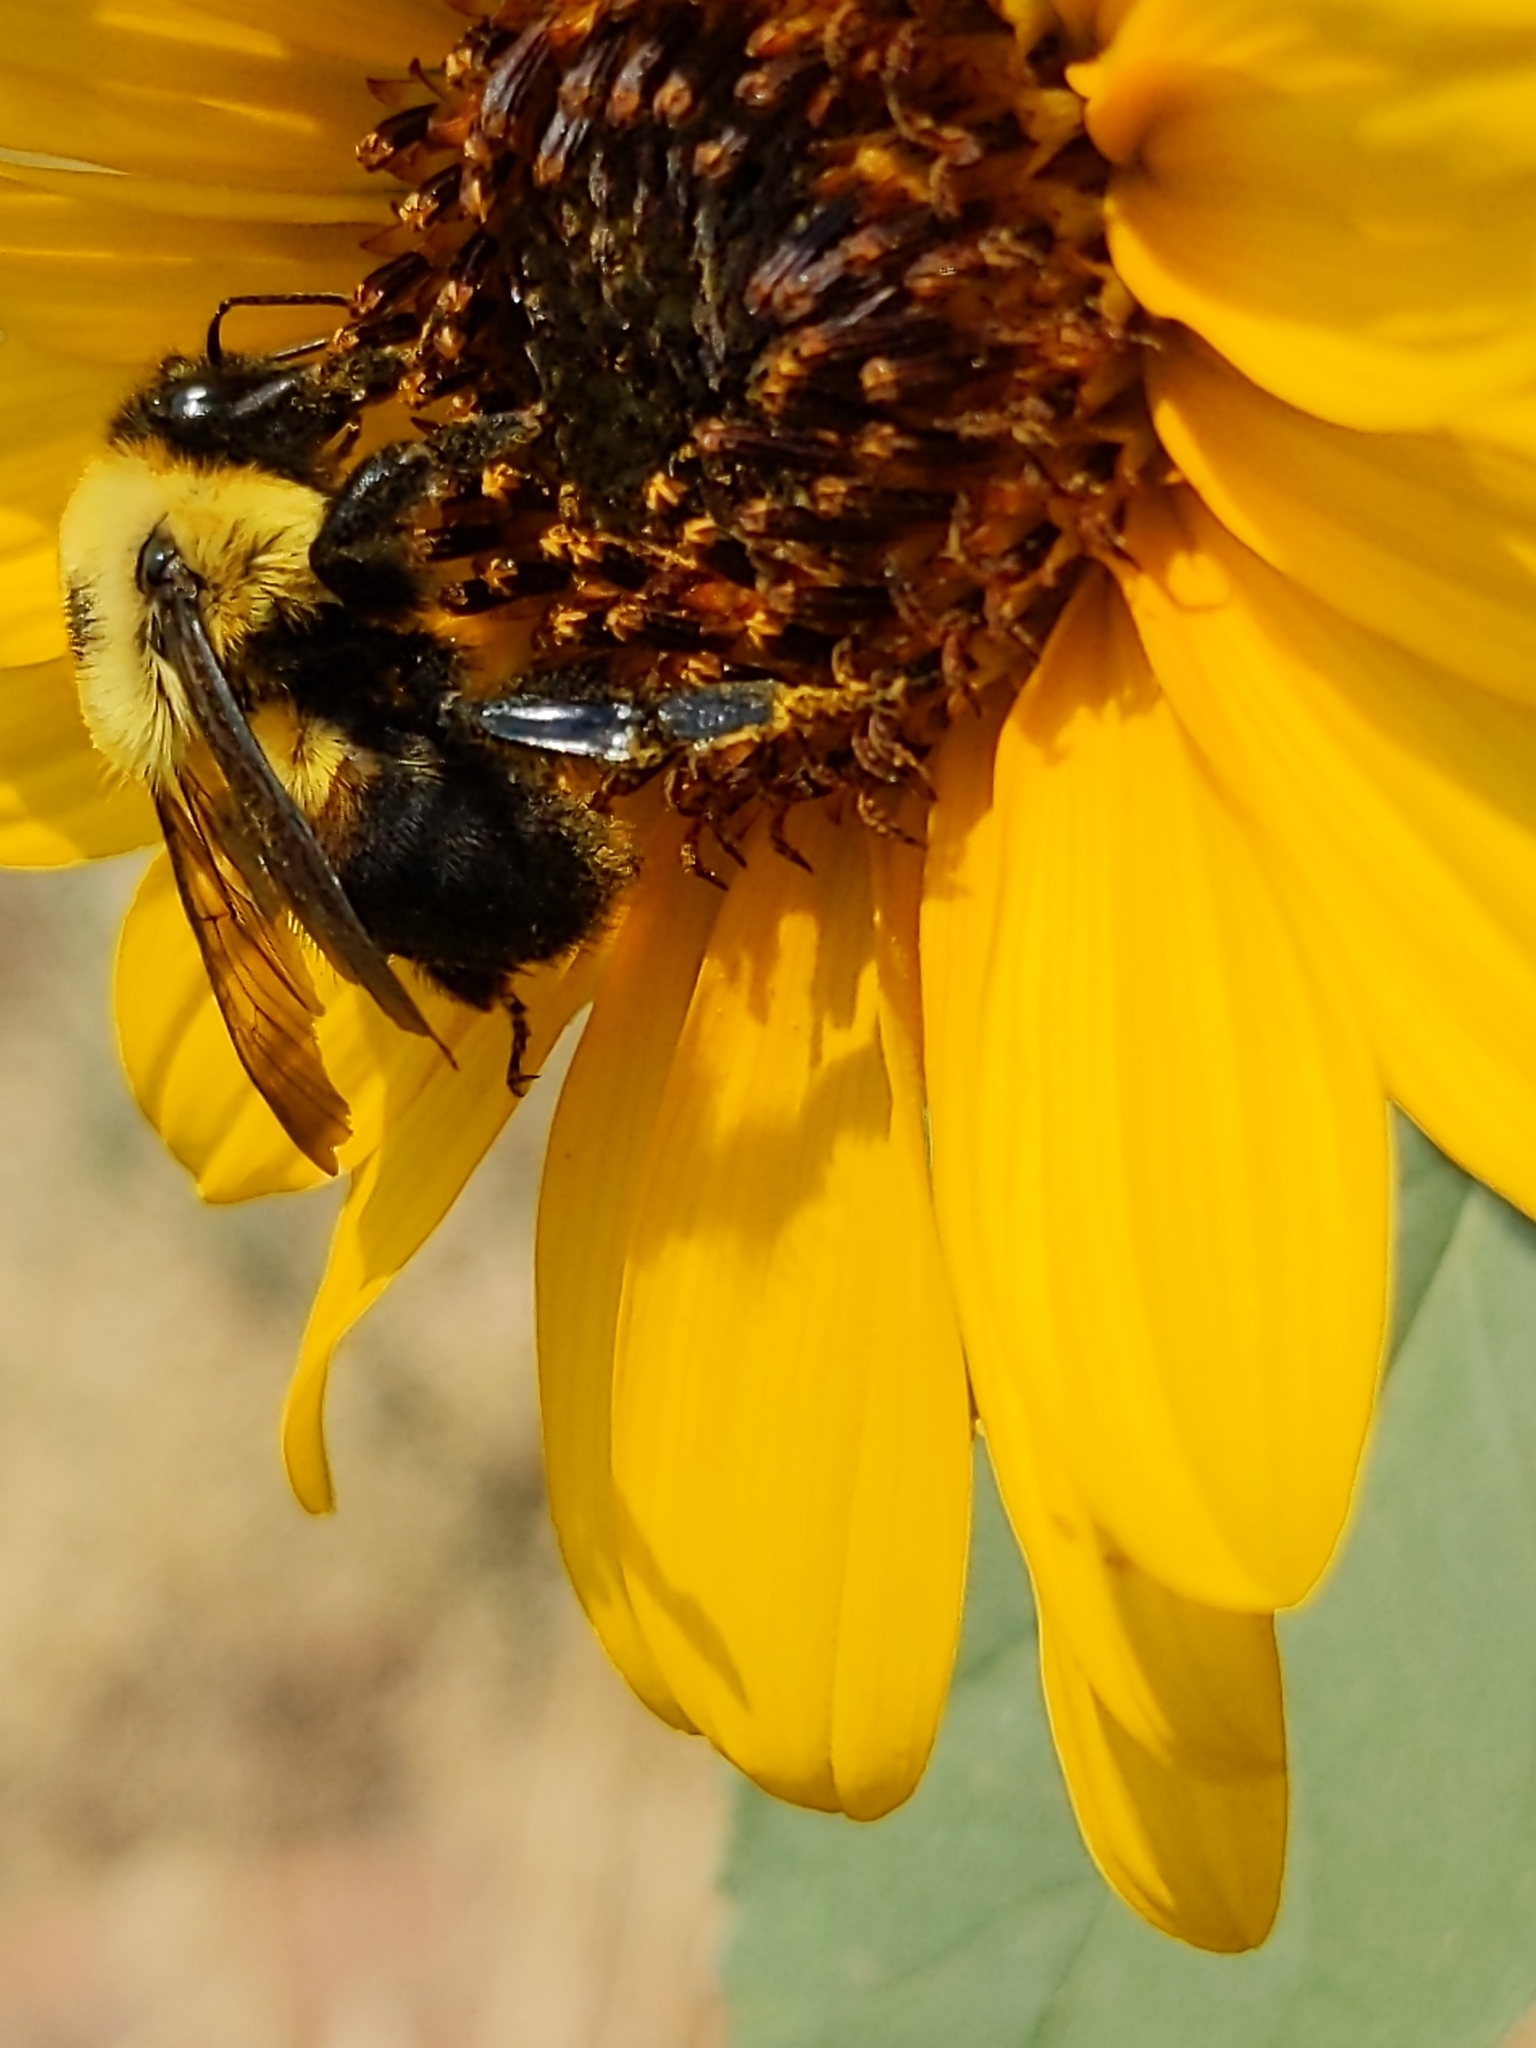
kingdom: Animalia
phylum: Arthropoda
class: Insecta
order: Hymenoptera
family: Apidae
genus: Bombus
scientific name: Bombus griseocollis
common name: Brown-belted bumble bee
